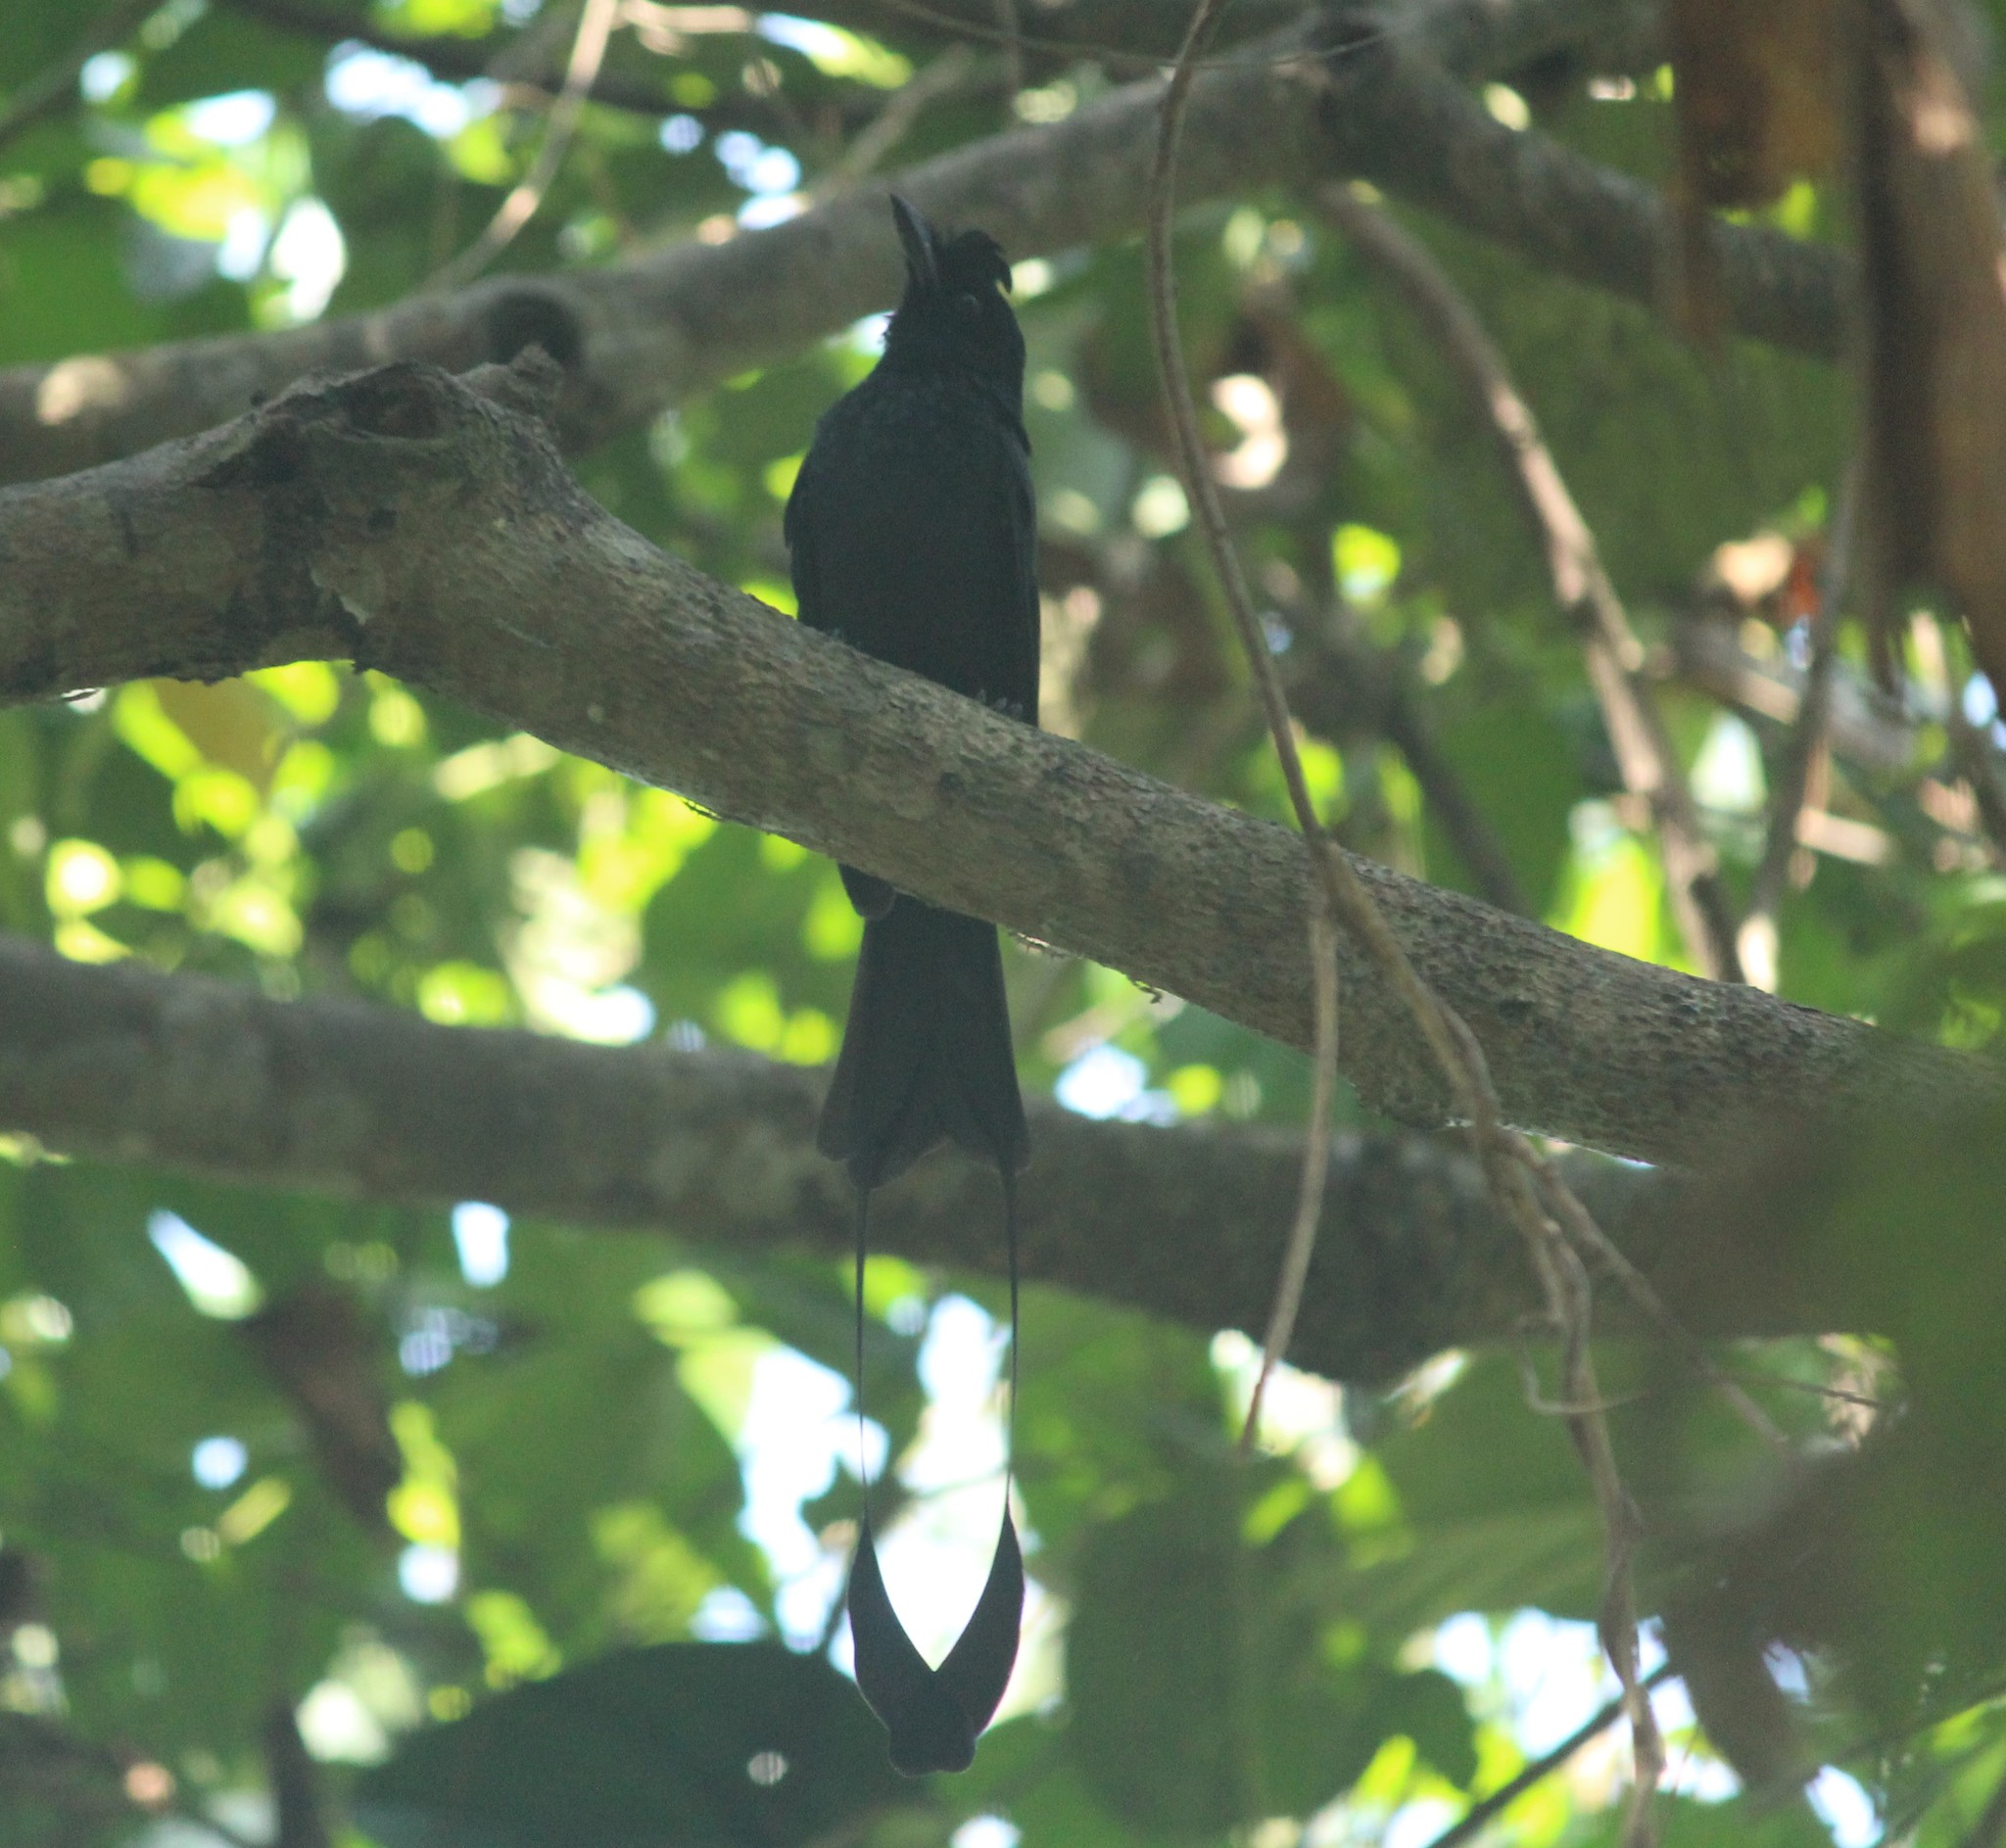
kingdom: Animalia
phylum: Chordata
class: Aves
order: Passeriformes
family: Dicruridae
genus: Dicrurus
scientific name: Dicrurus paradiseus
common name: Greater racket-tailed drongo
